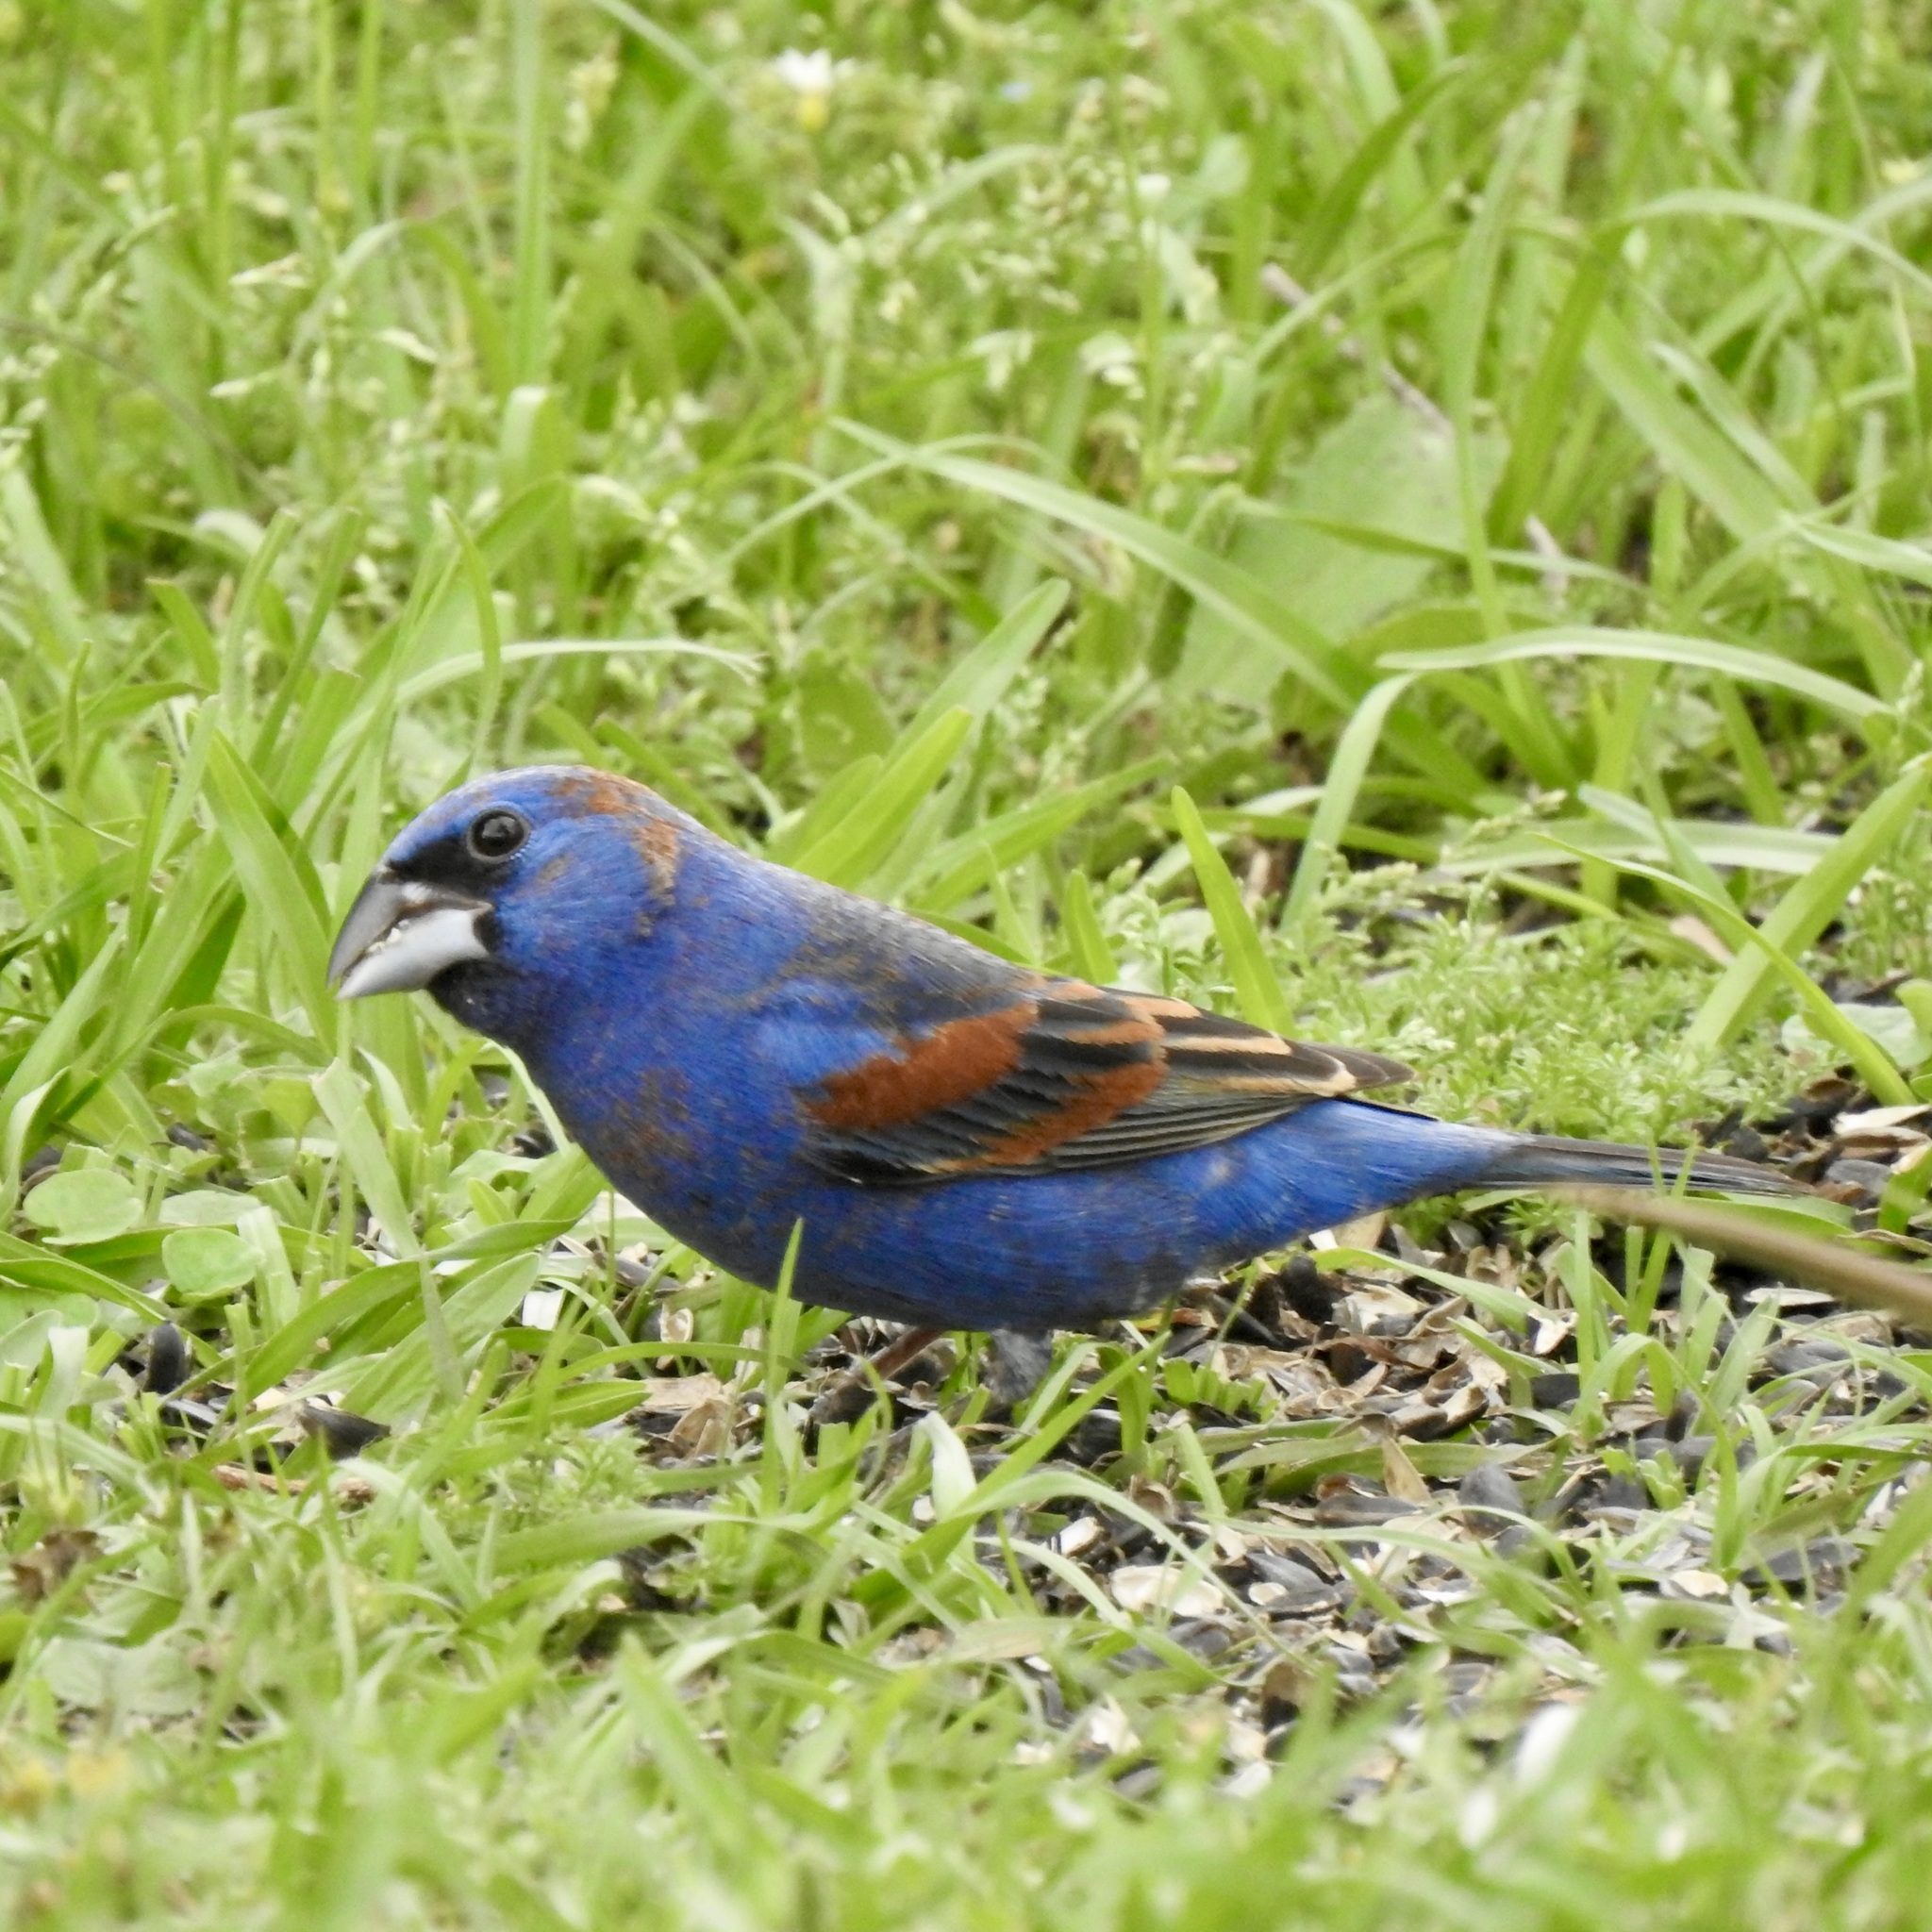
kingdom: Animalia
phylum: Chordata
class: Aves
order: Passeriformes
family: Cardinalidae
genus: Passerina
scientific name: Passerina caerulea
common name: Blue grosbeak
